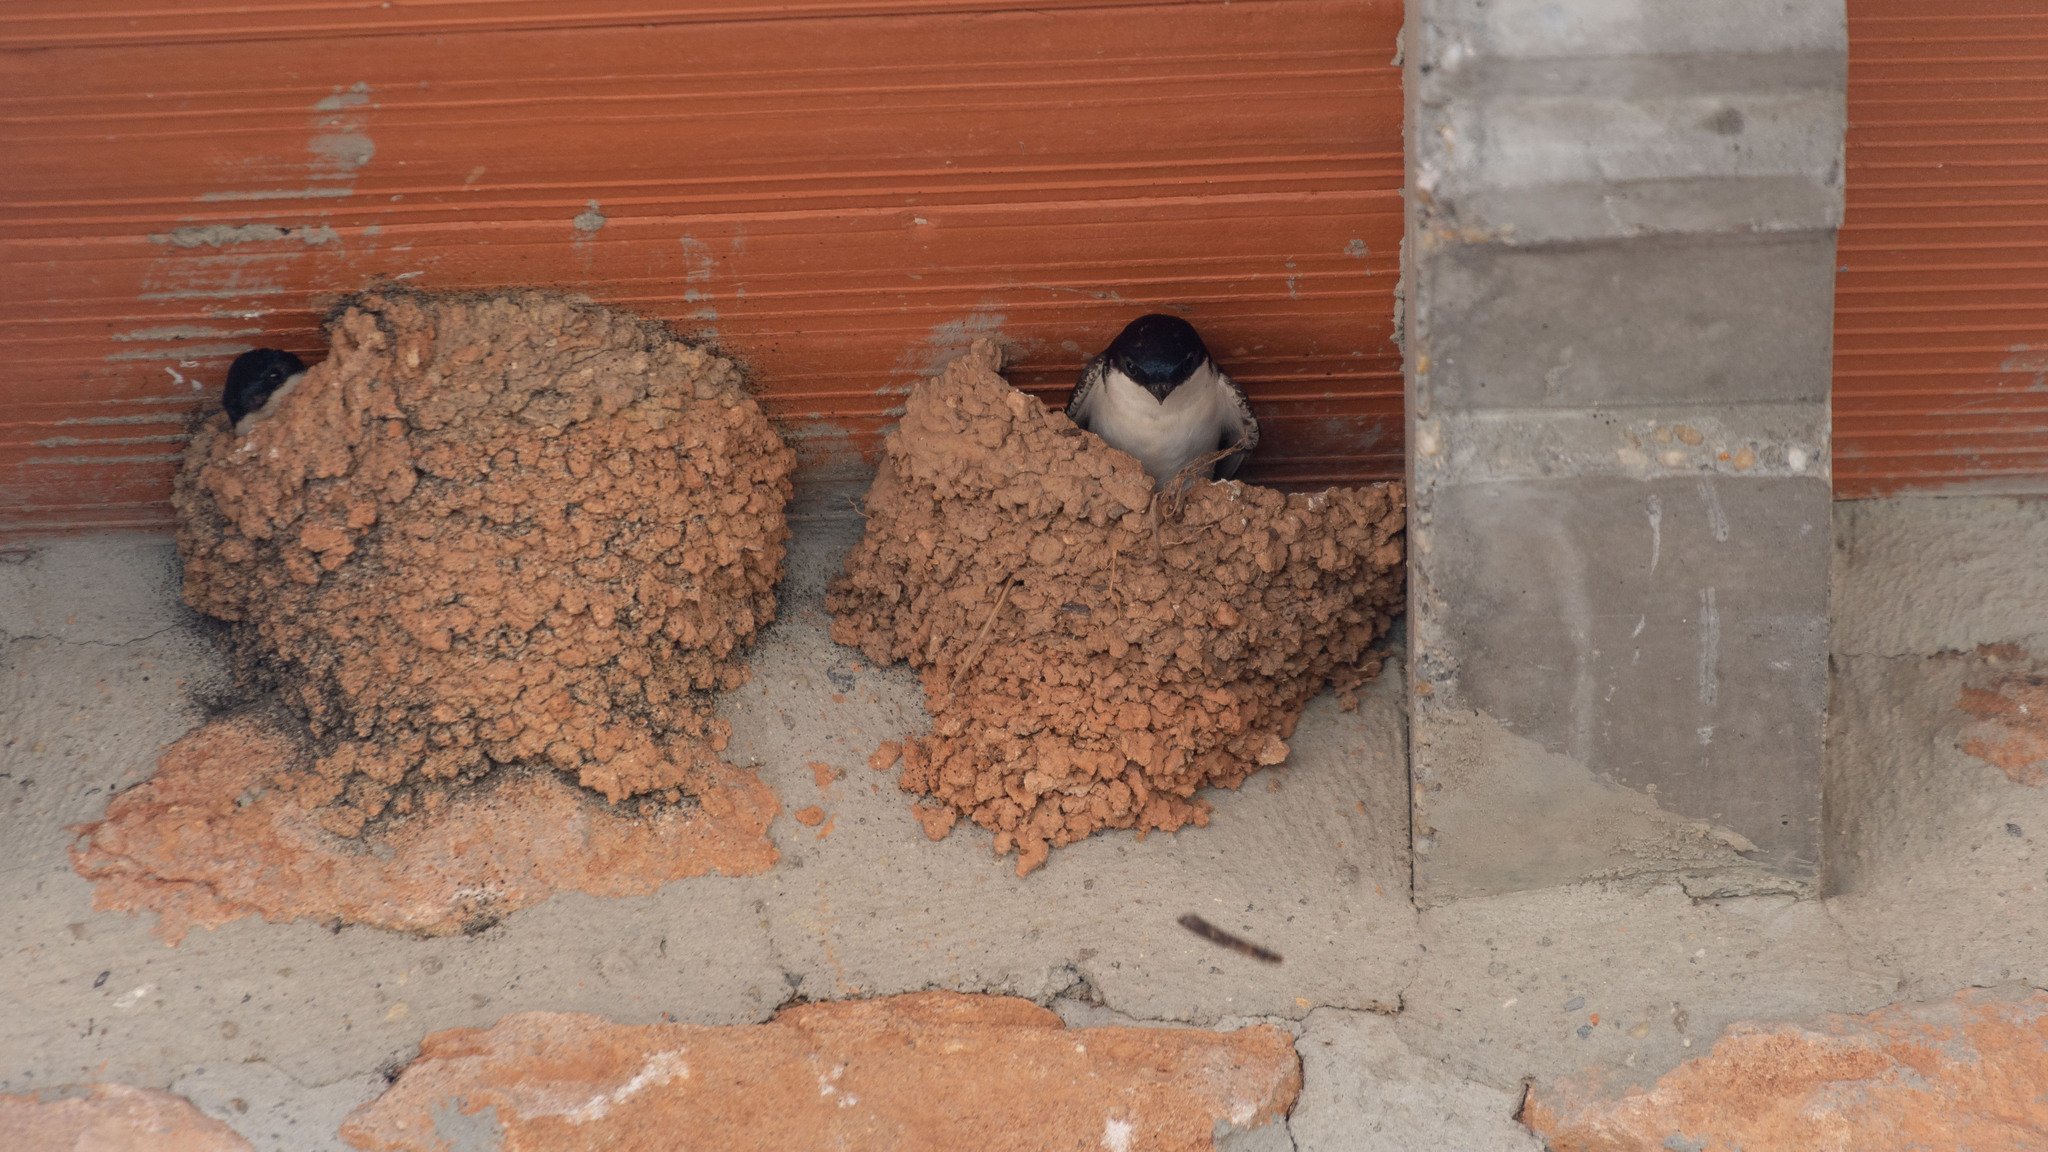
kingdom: Animalia
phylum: Chordata
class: Aves
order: Passeriformes
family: Hirundinidae
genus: Delichon
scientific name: Delichon urbicum
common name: Common house martin
